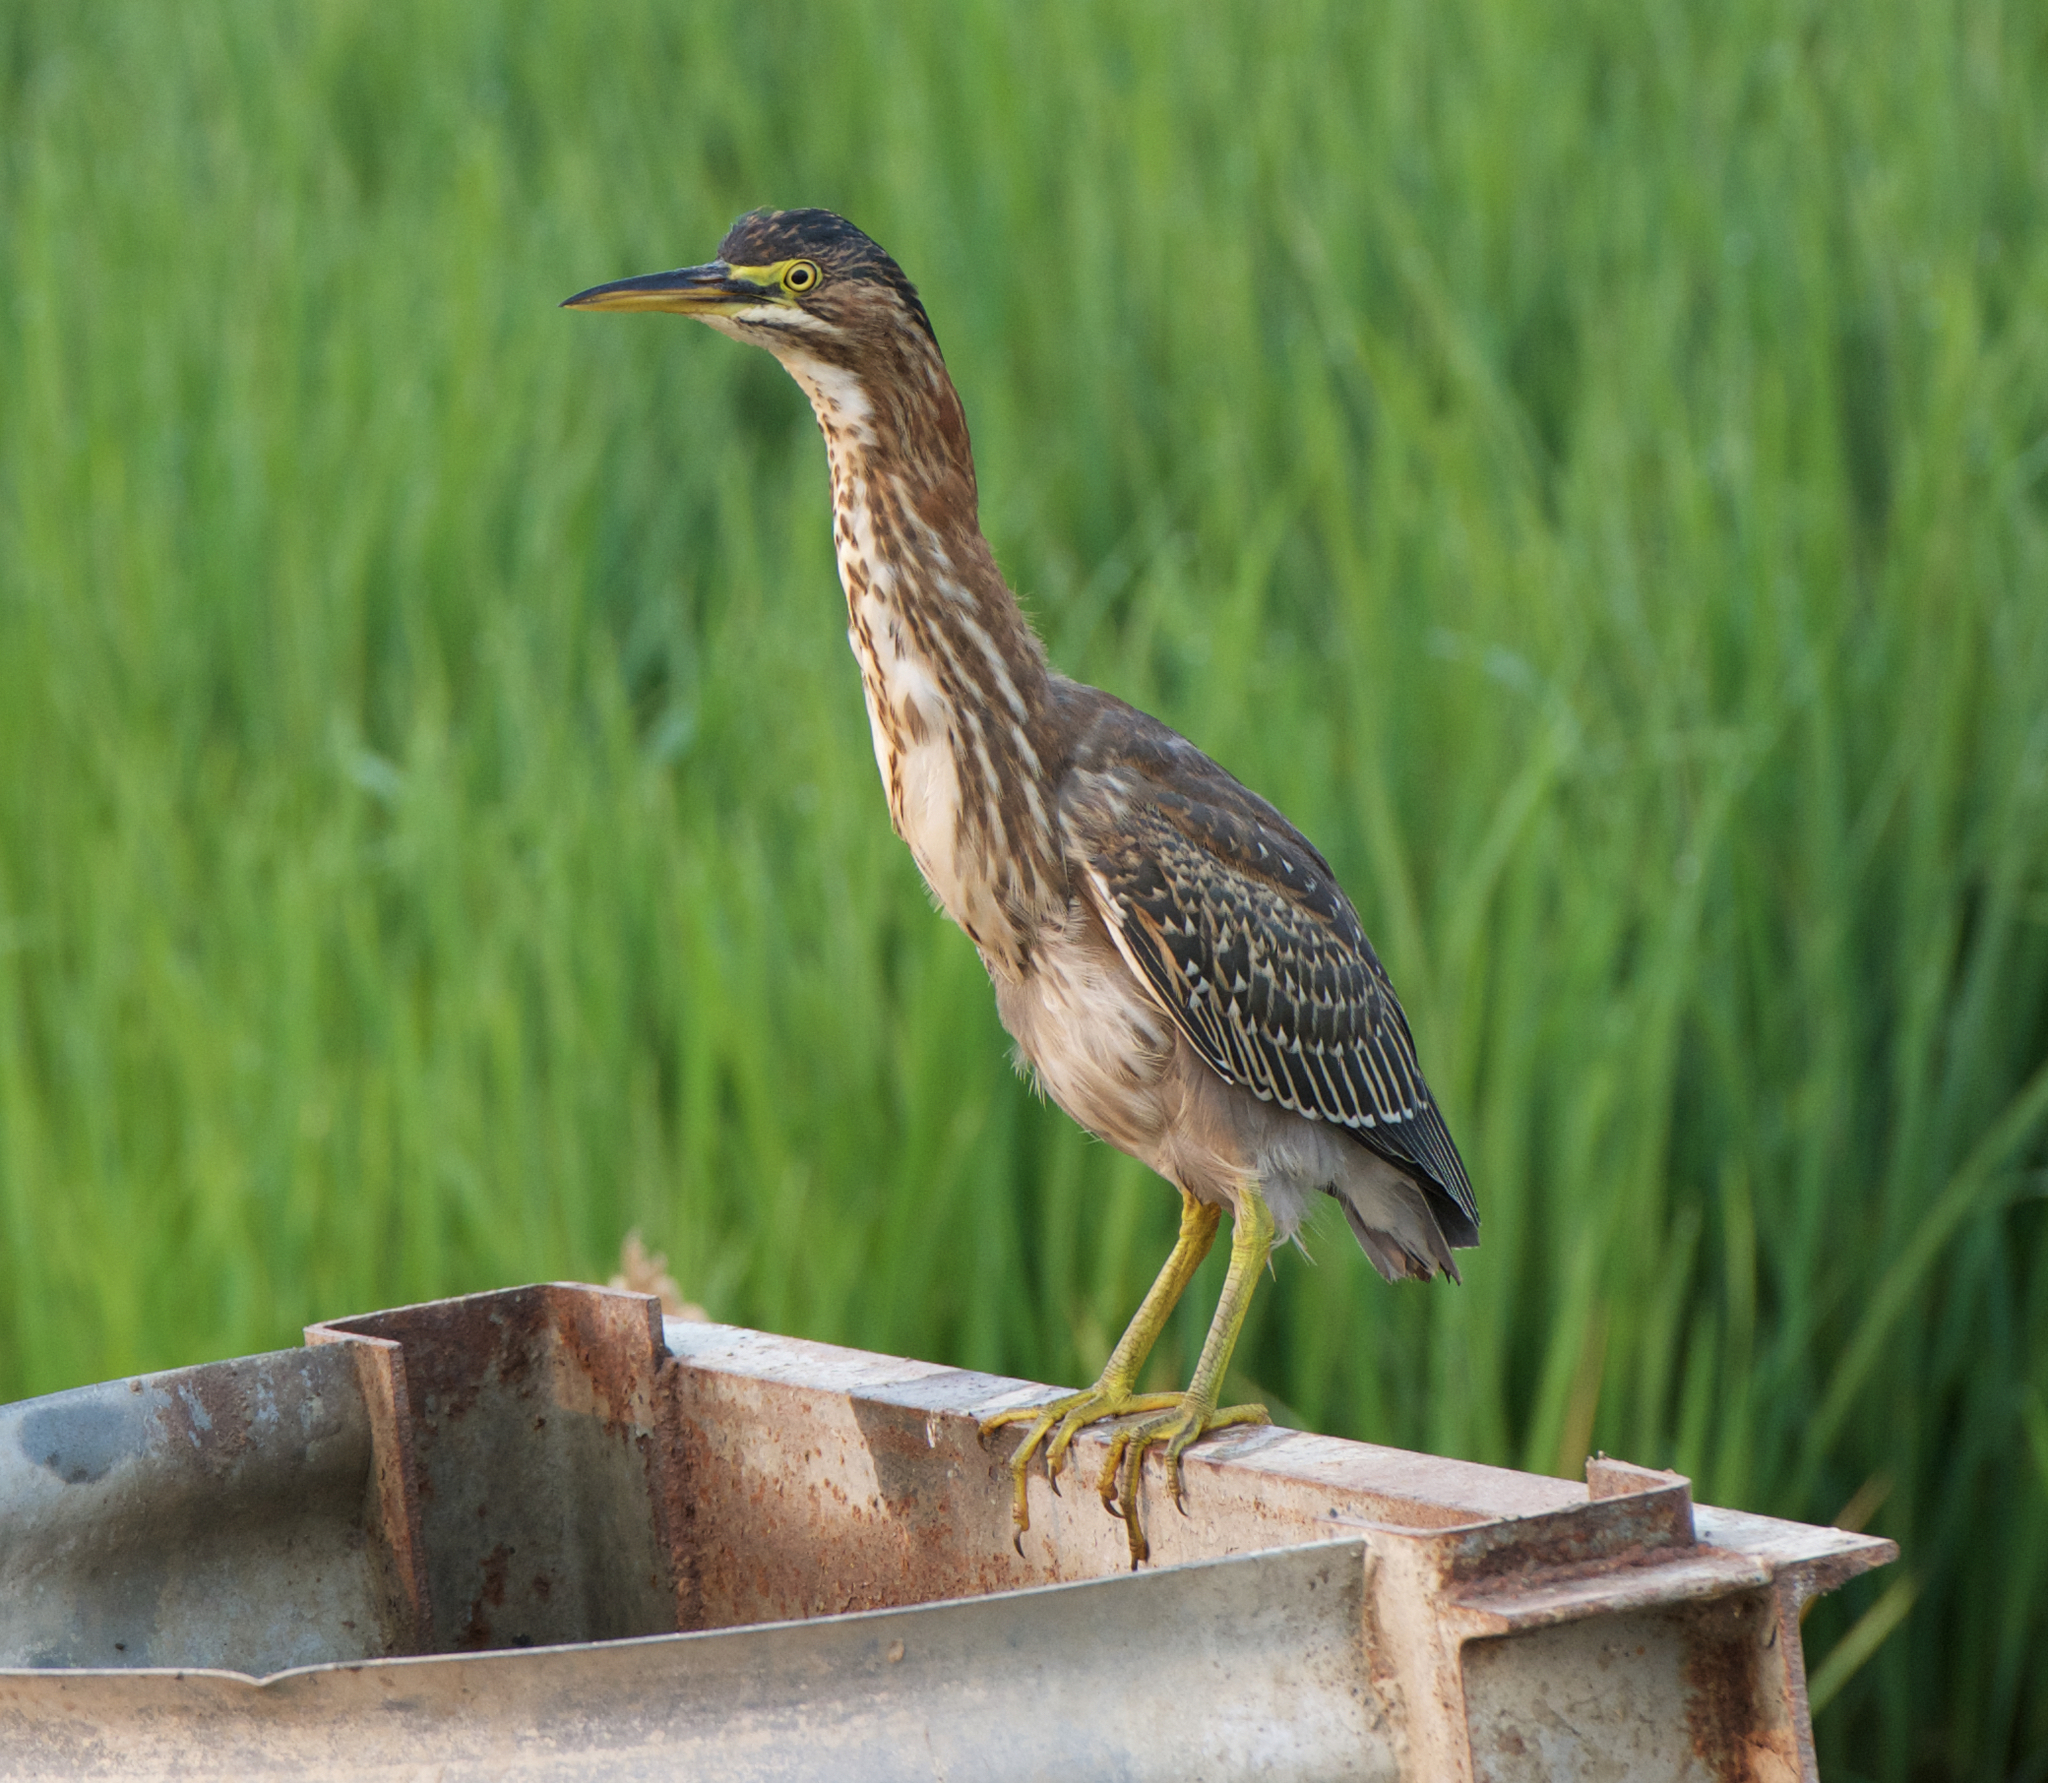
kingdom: Animalia
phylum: Chordata
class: Aves
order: Pelecaniformes
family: Ardeidae
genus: Butorides
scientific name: Butorides virescens
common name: Green heron
